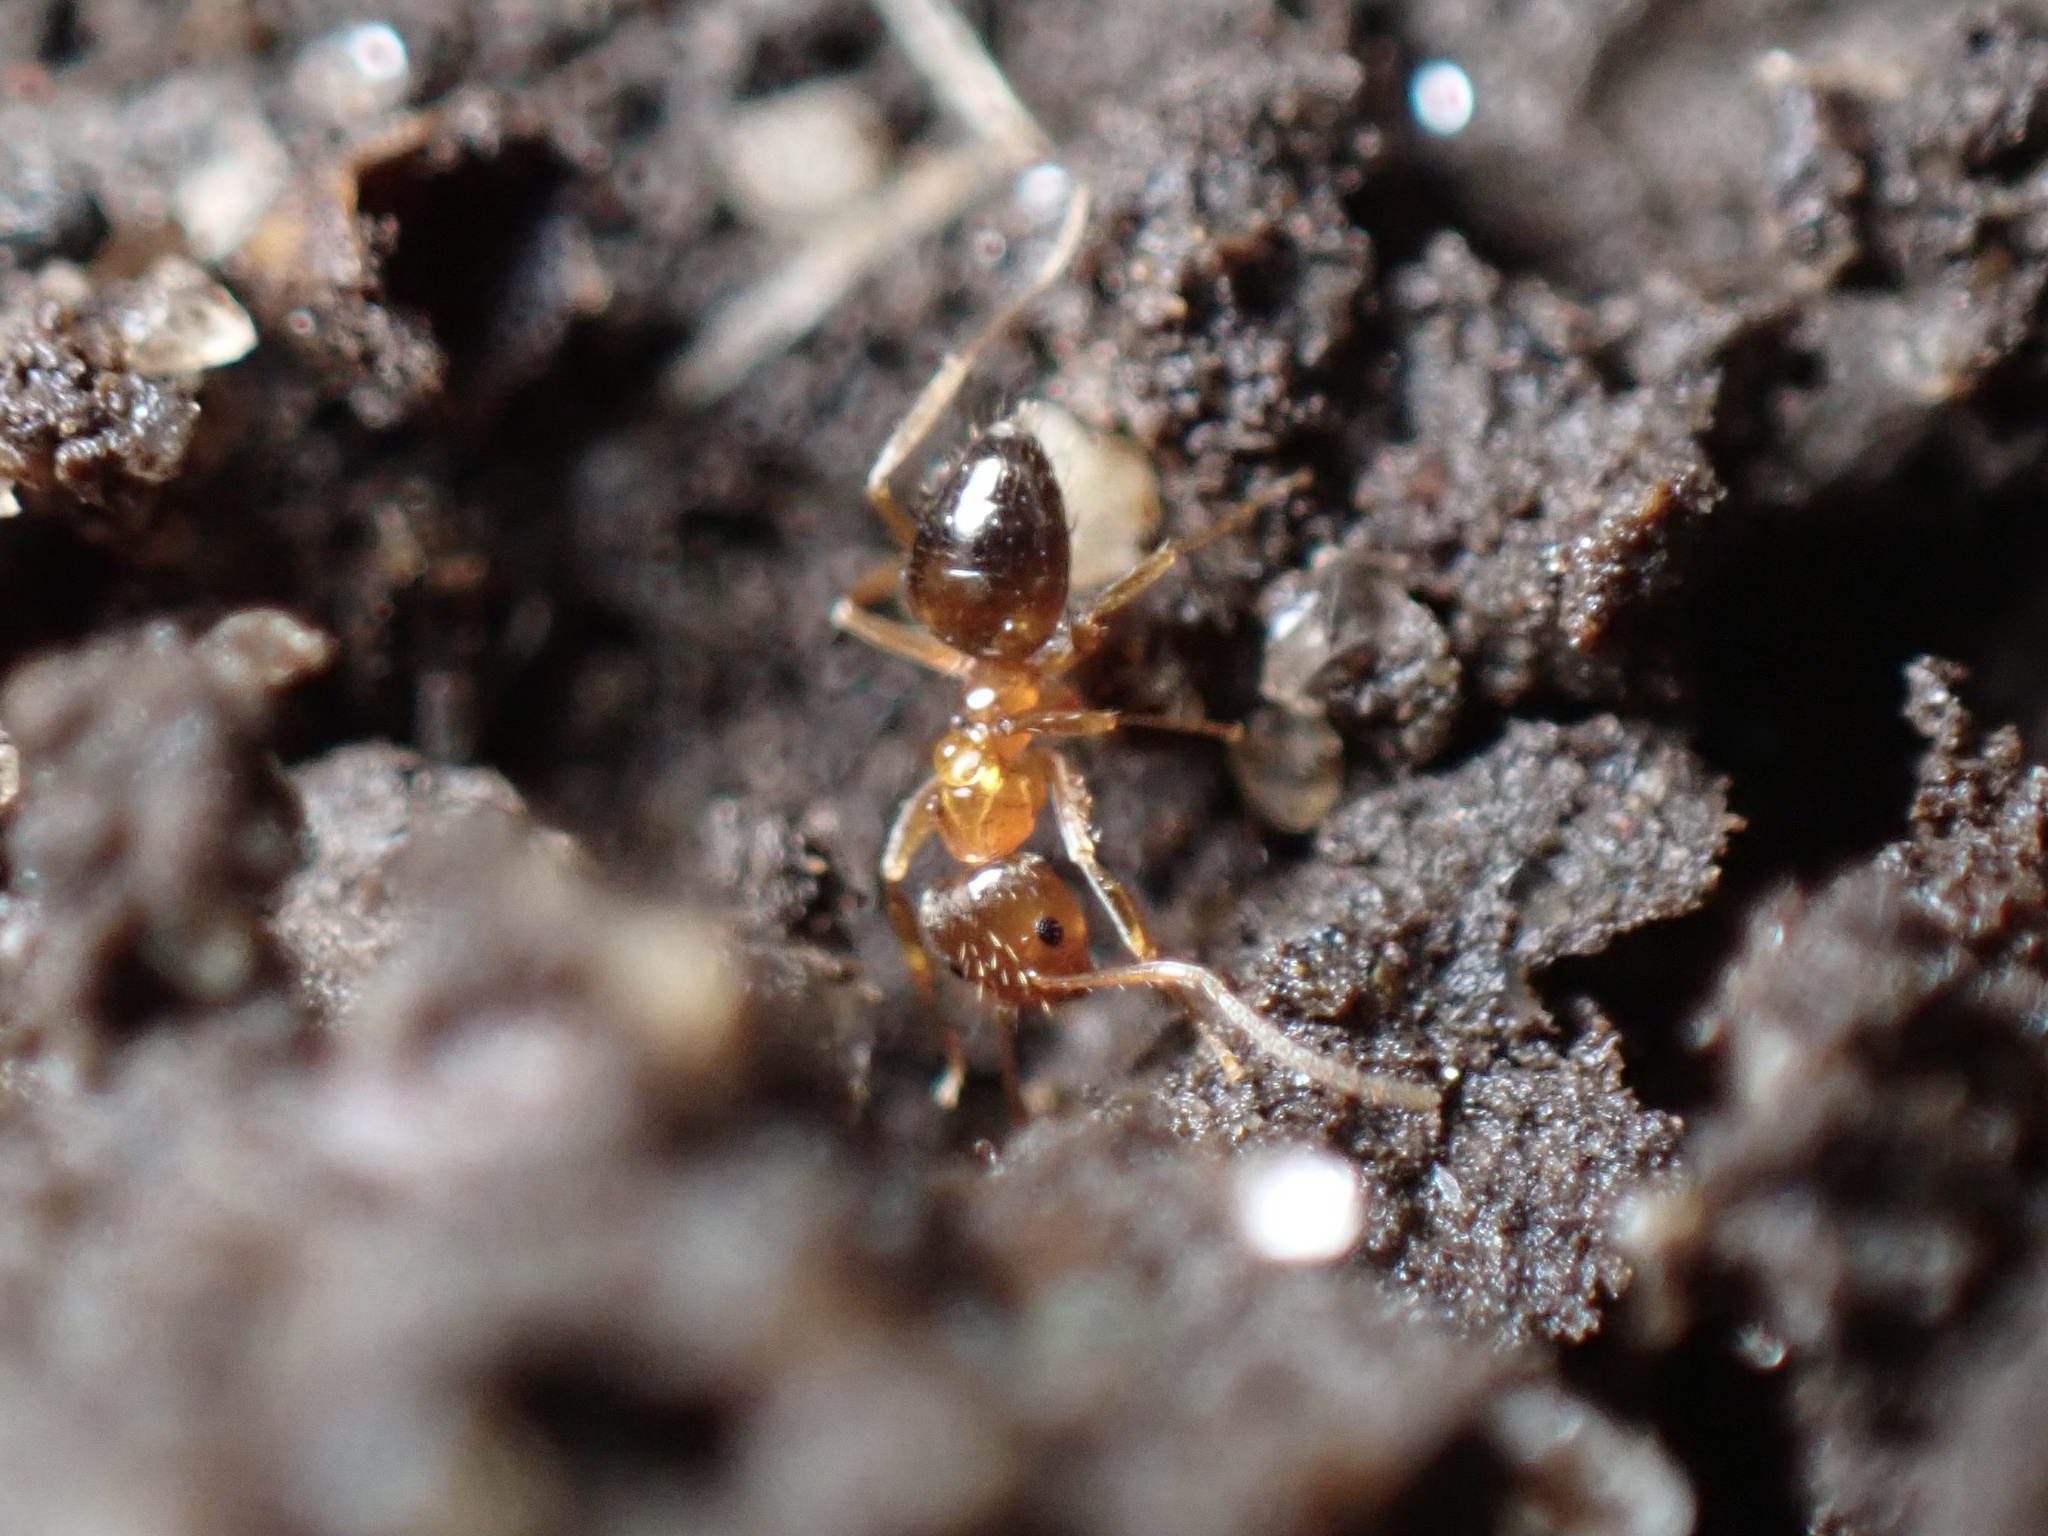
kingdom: Animalia
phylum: Arthropoda
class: Insecta
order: Hymenoptera
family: Formicidae
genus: Paratrechina
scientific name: Paratrechina flavipes
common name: Eastern asian formicine ant
